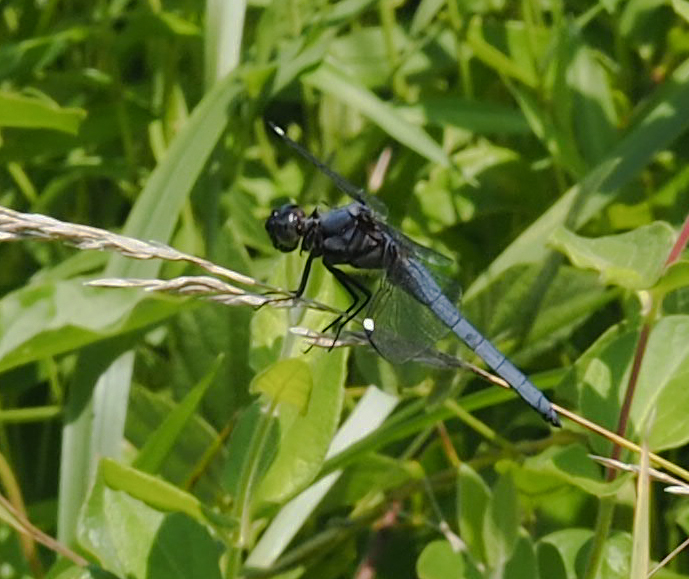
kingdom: Animalia
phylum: Arthropoda
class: Insecta
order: Odonata
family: Libellulidae
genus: Libellula
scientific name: Libellula cyanea
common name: Spangled skimmer
